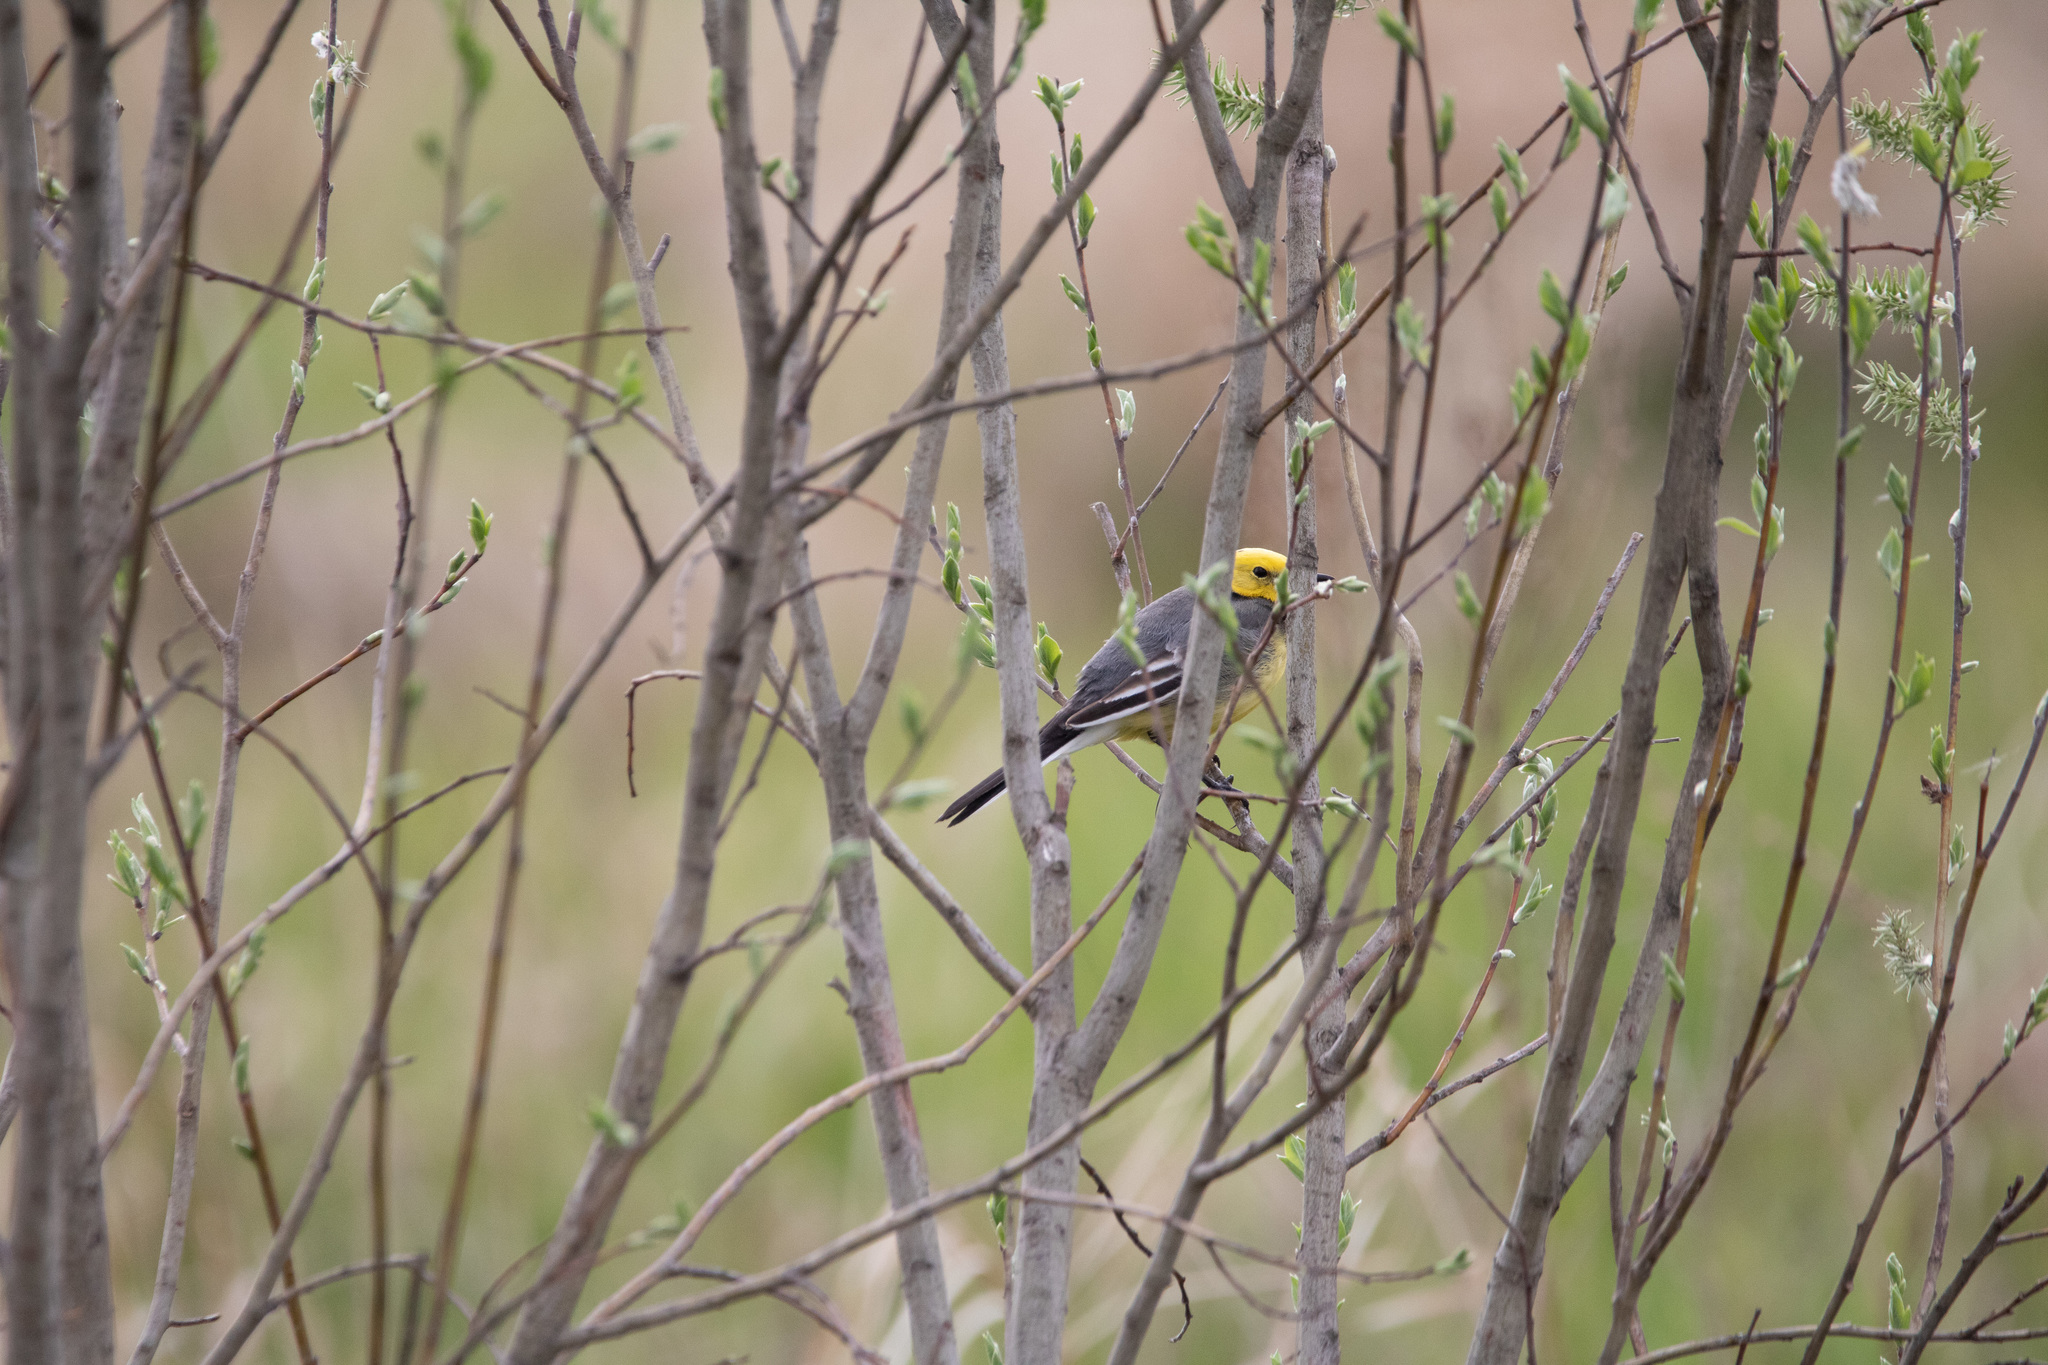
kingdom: Animalia
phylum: Chordata
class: Aves
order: Passeriformes
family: Motacillidae
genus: Motacilla
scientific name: Motacilla citreola
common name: Citrine wagtail
